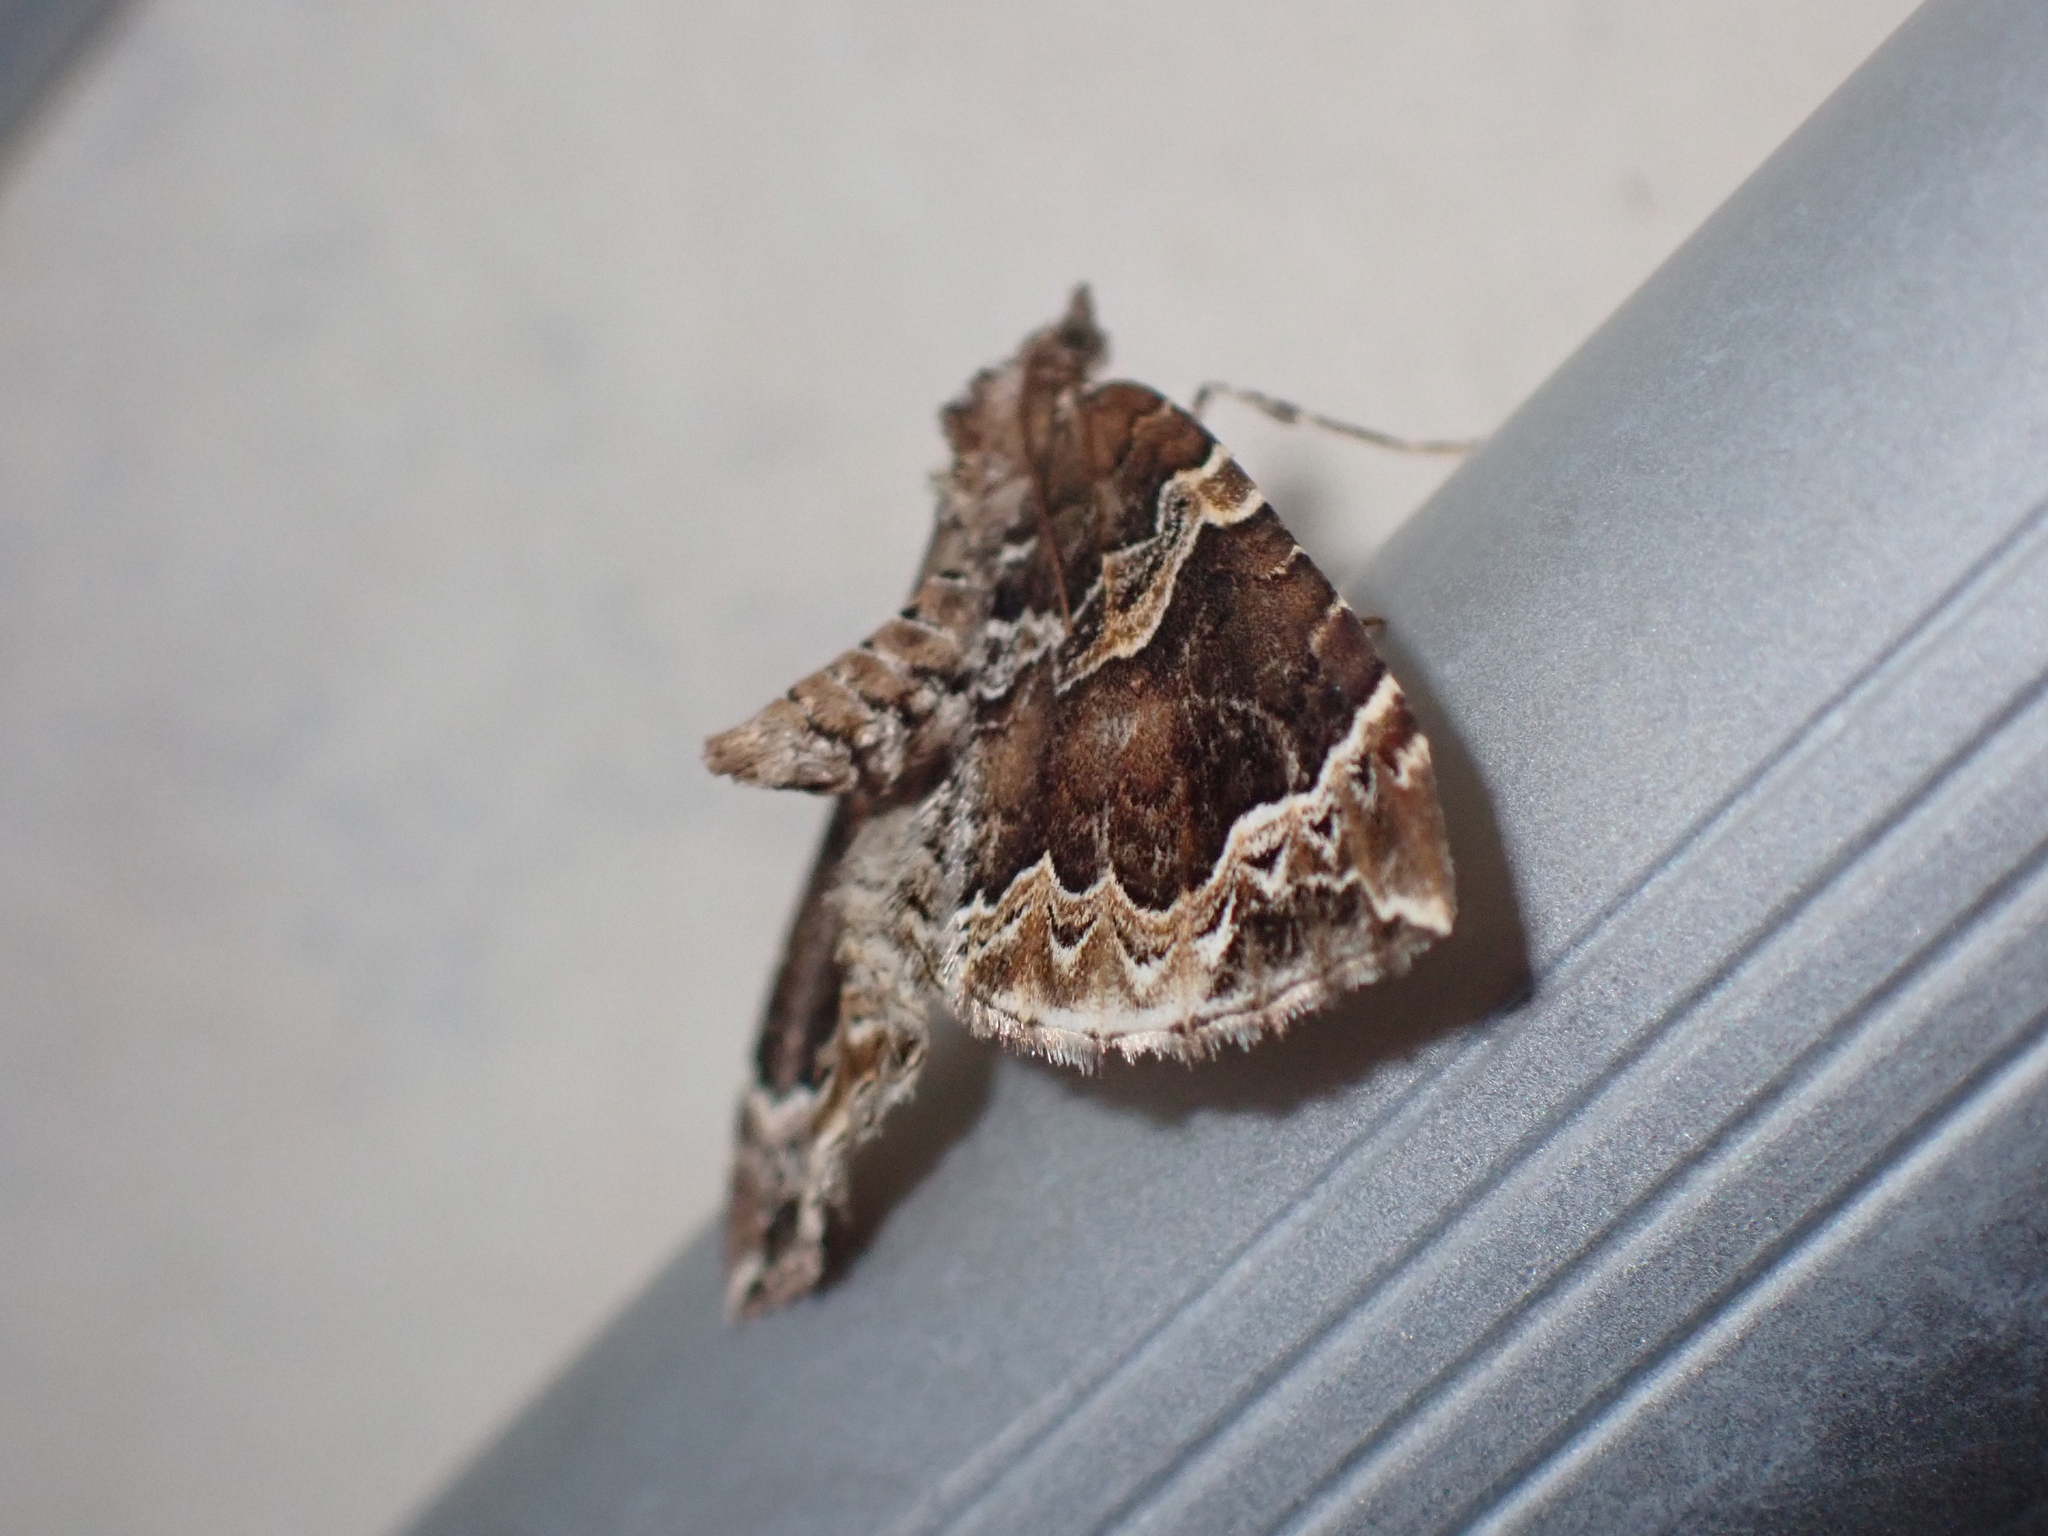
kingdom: Animalia
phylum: Arthropoda
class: Insecta
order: Lepidoptera
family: Geometridae
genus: Eulithis
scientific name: Eulithis prunata
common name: Phoenix
